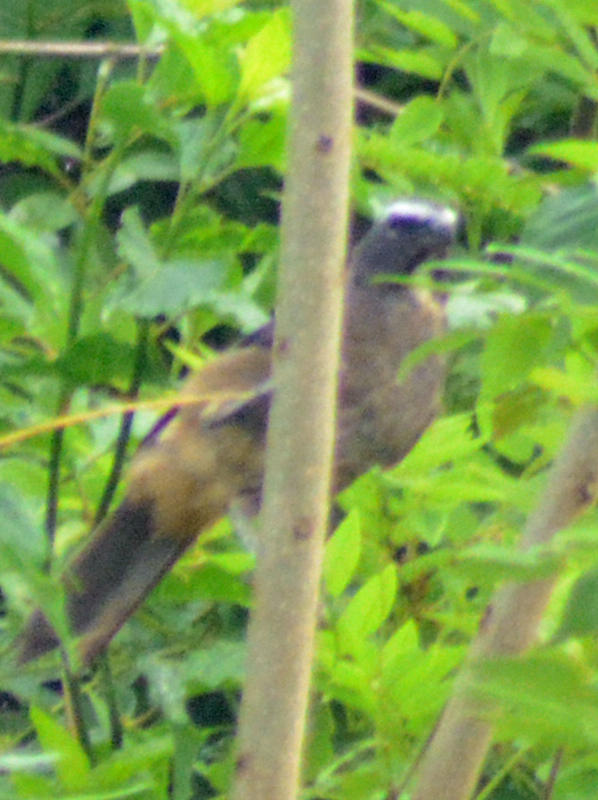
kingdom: Animalia
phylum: Chordata
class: Aves
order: Passeriformes
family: Thraupidae
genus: Saltator
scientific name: Saltator grandis
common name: Cinnamon-bellied saltator
